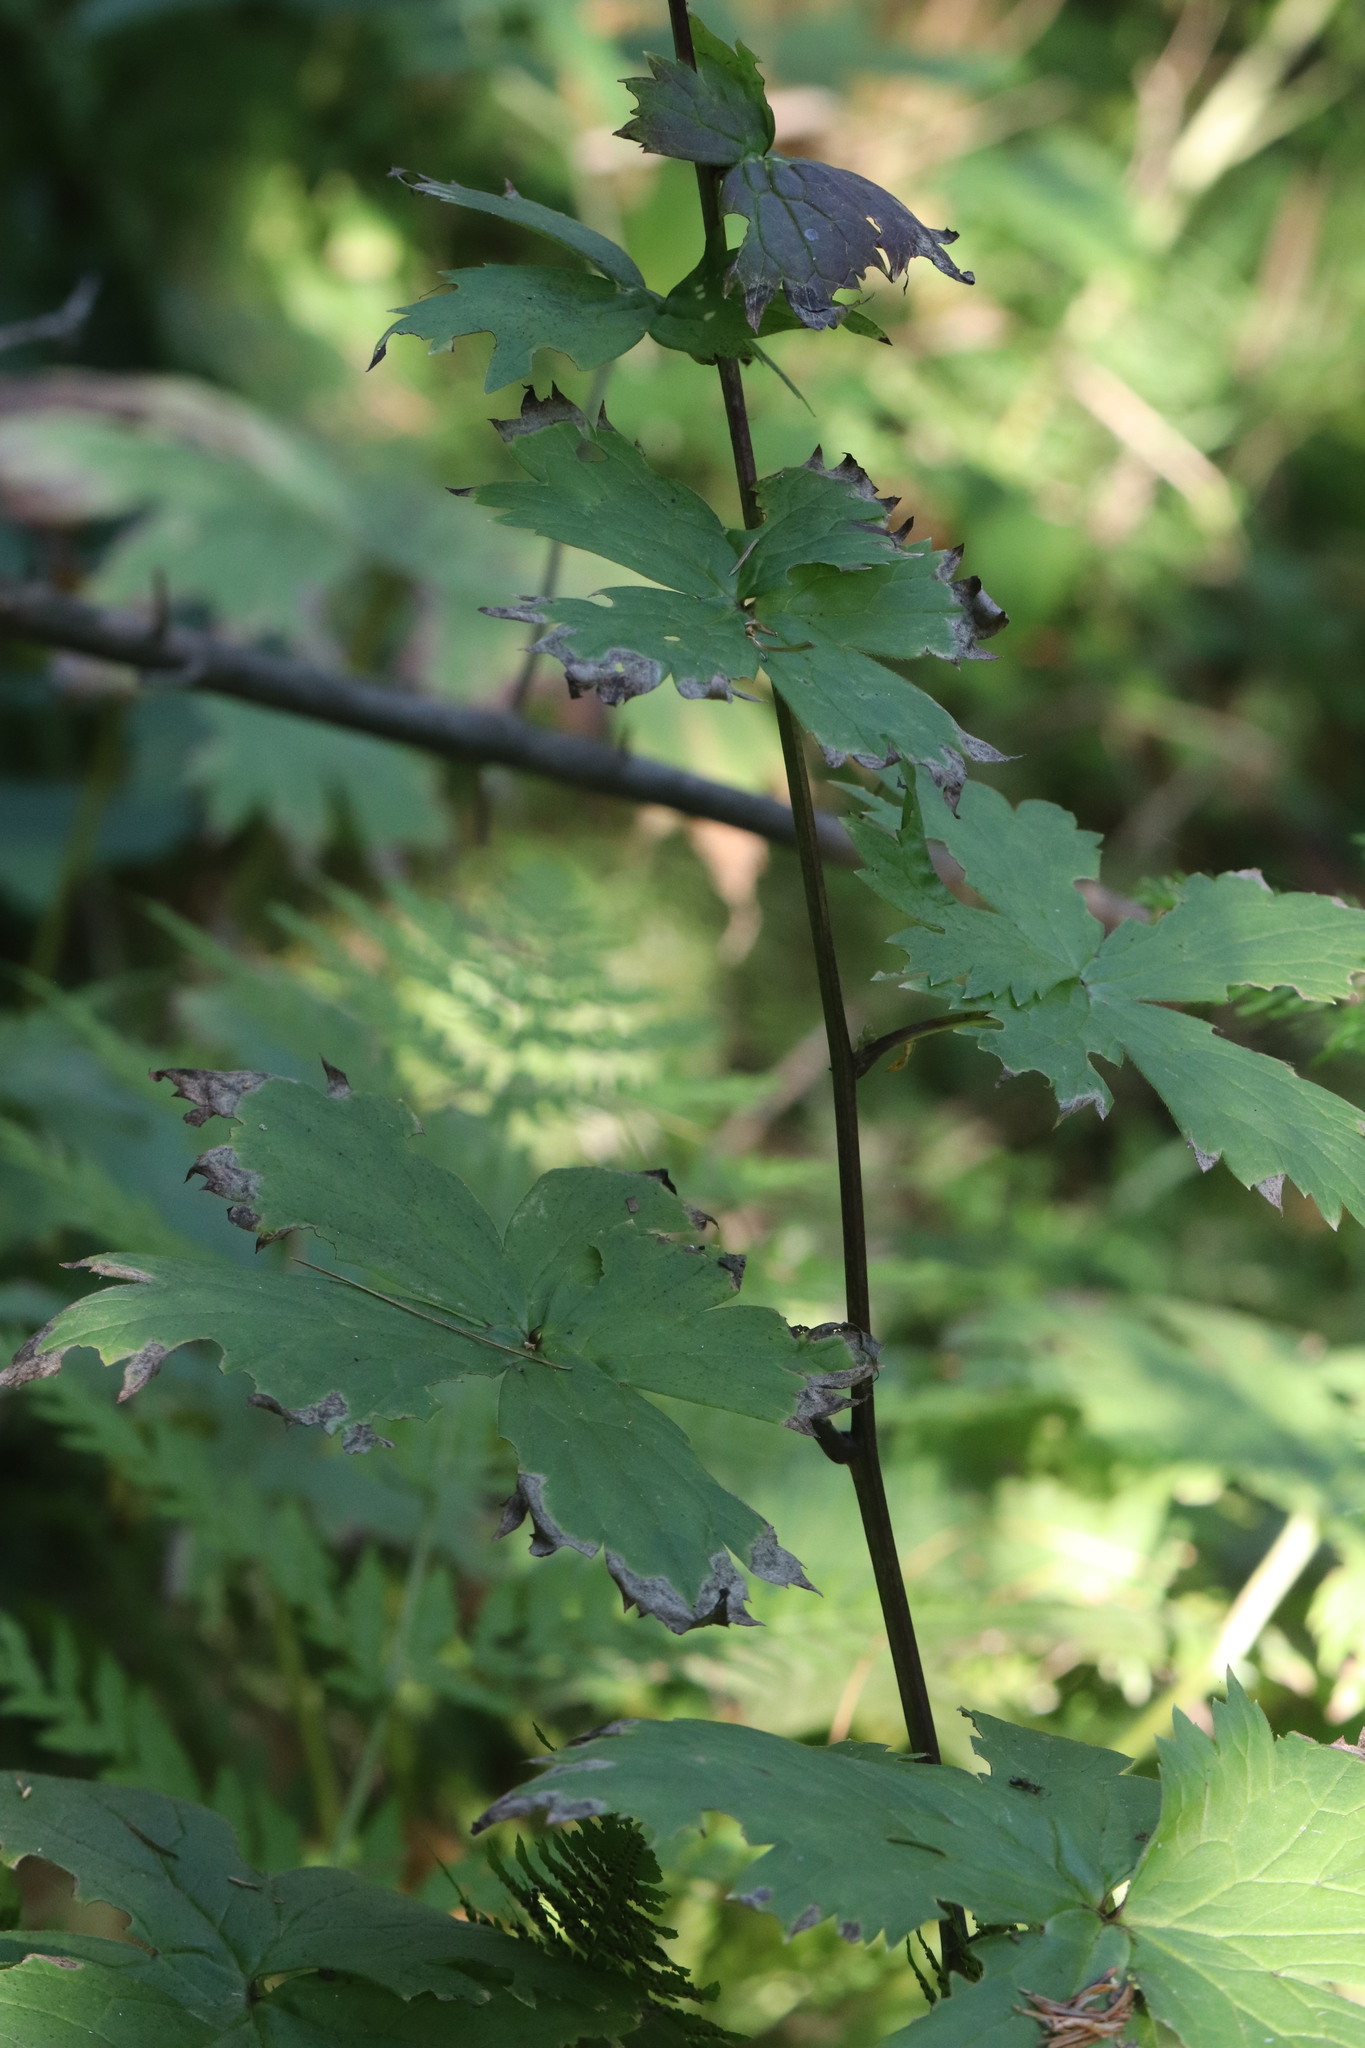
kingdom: Plantae
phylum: Tracheophyta
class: Magnoliopsida
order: Ranunculales
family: Ranunculaceae
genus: Aconitum
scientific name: Aconitum septentrionale
